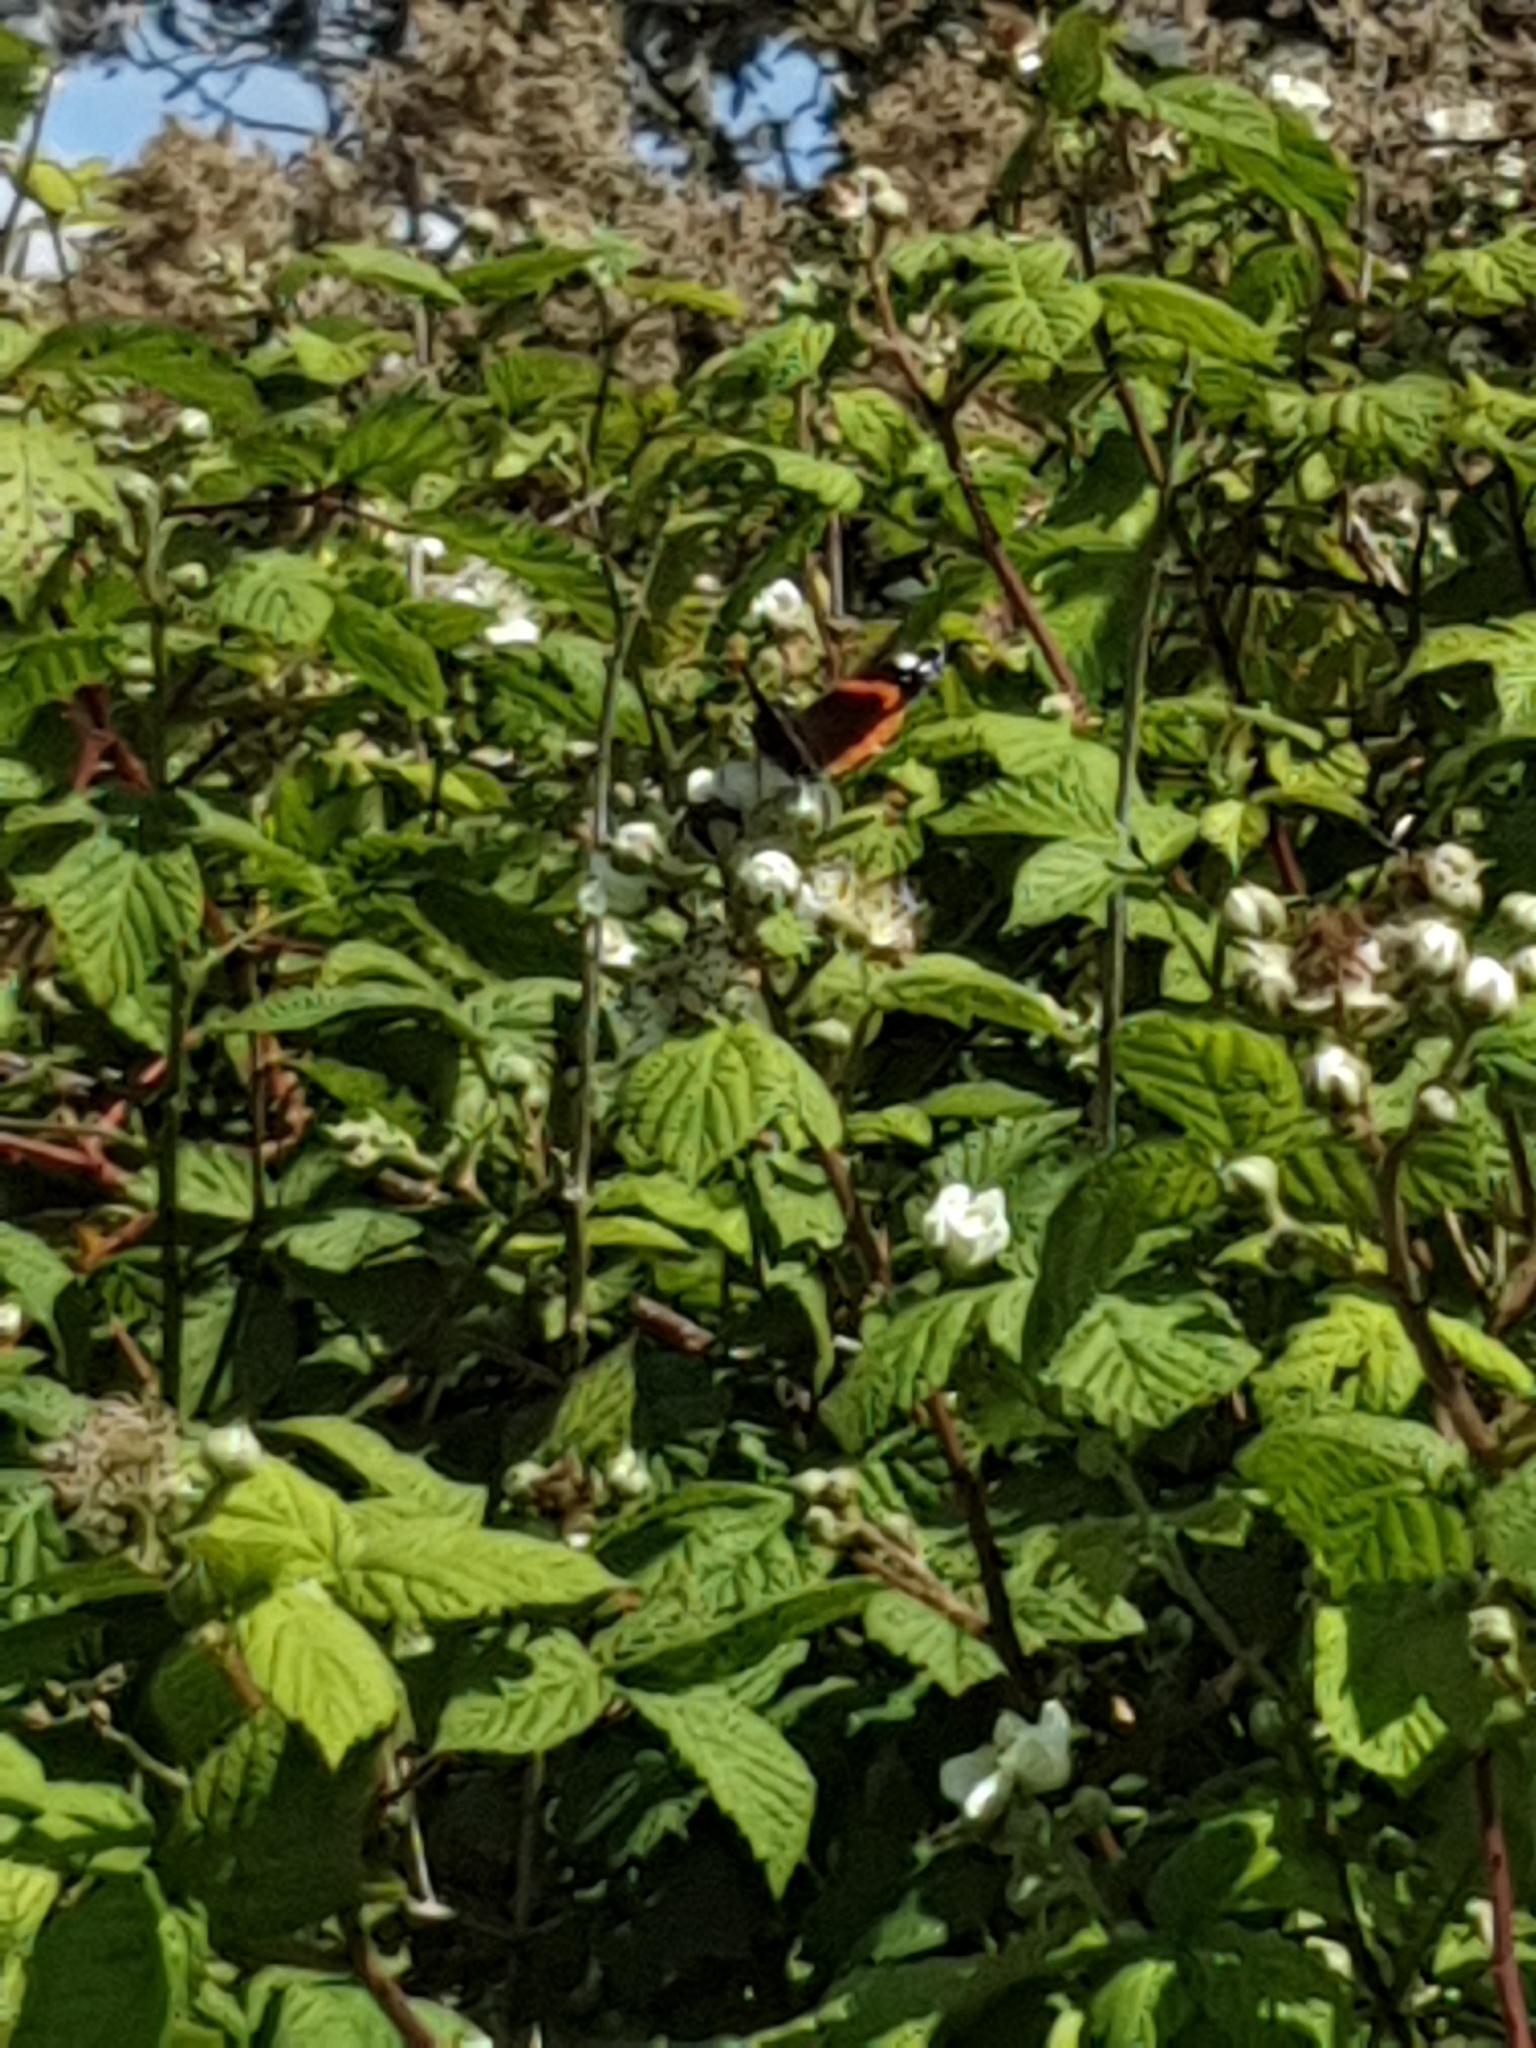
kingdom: Animalia
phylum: Arthropoda
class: Insecta
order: Lepidoptera
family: Nymphalidae
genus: Vanessa
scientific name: Vanessa atalanta
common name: Red admiral
